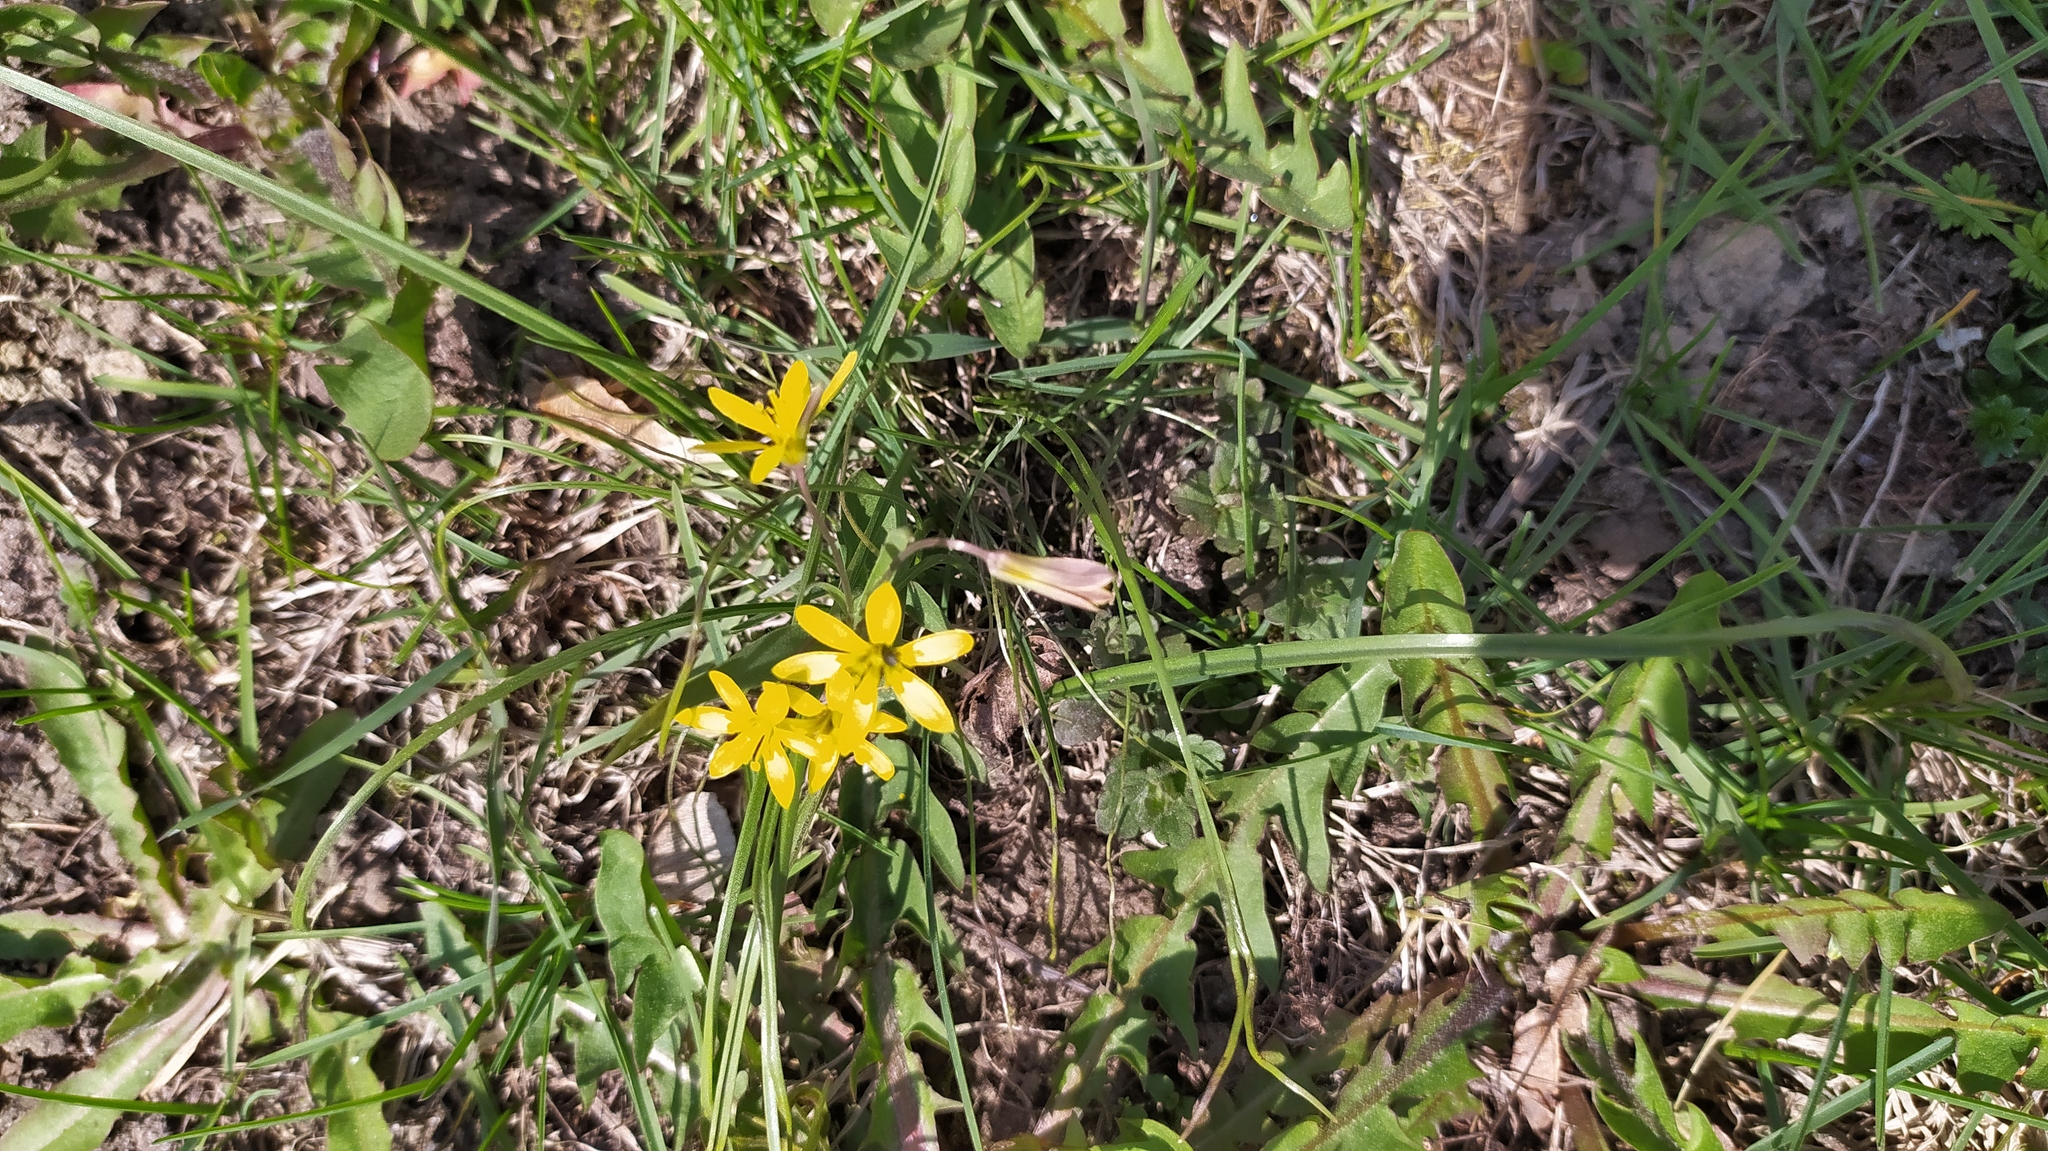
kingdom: Plantae
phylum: Tracheophyta
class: Liliopsida
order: Liliales
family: Liliaceae
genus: Gagea
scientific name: Gagea fragifera
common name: Lily
